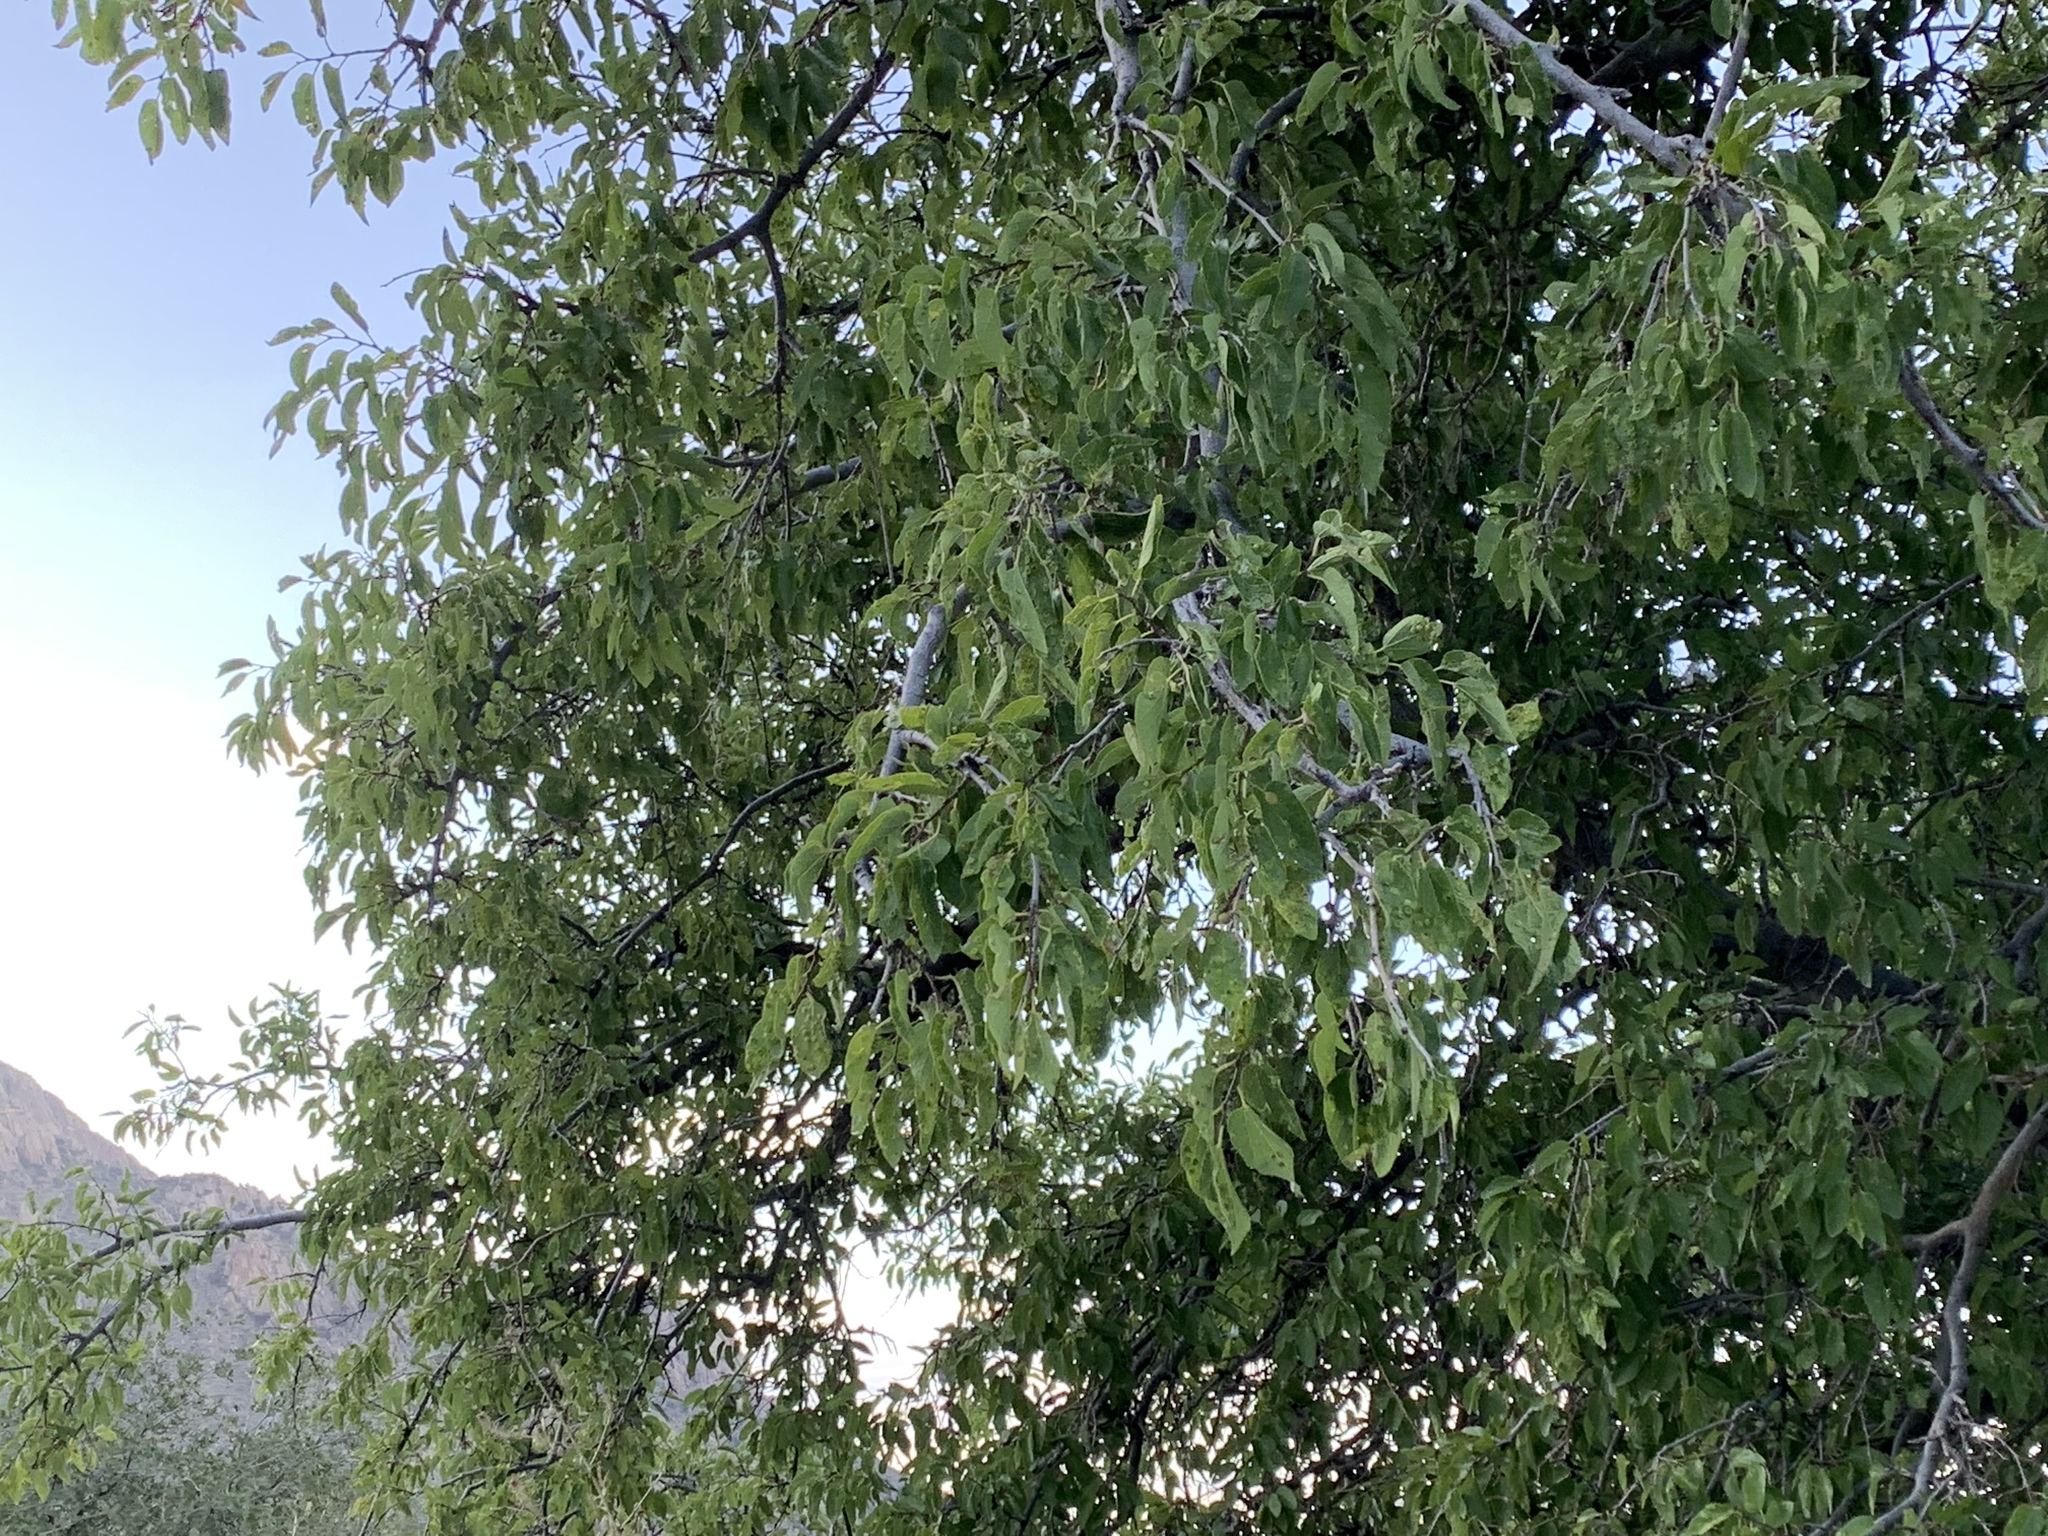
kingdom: Plantae
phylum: Tracheophyta
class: Magnoliopsida
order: Fagales
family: Fagaceae
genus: Quercus
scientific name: Quercus grisea
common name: Gray oak
